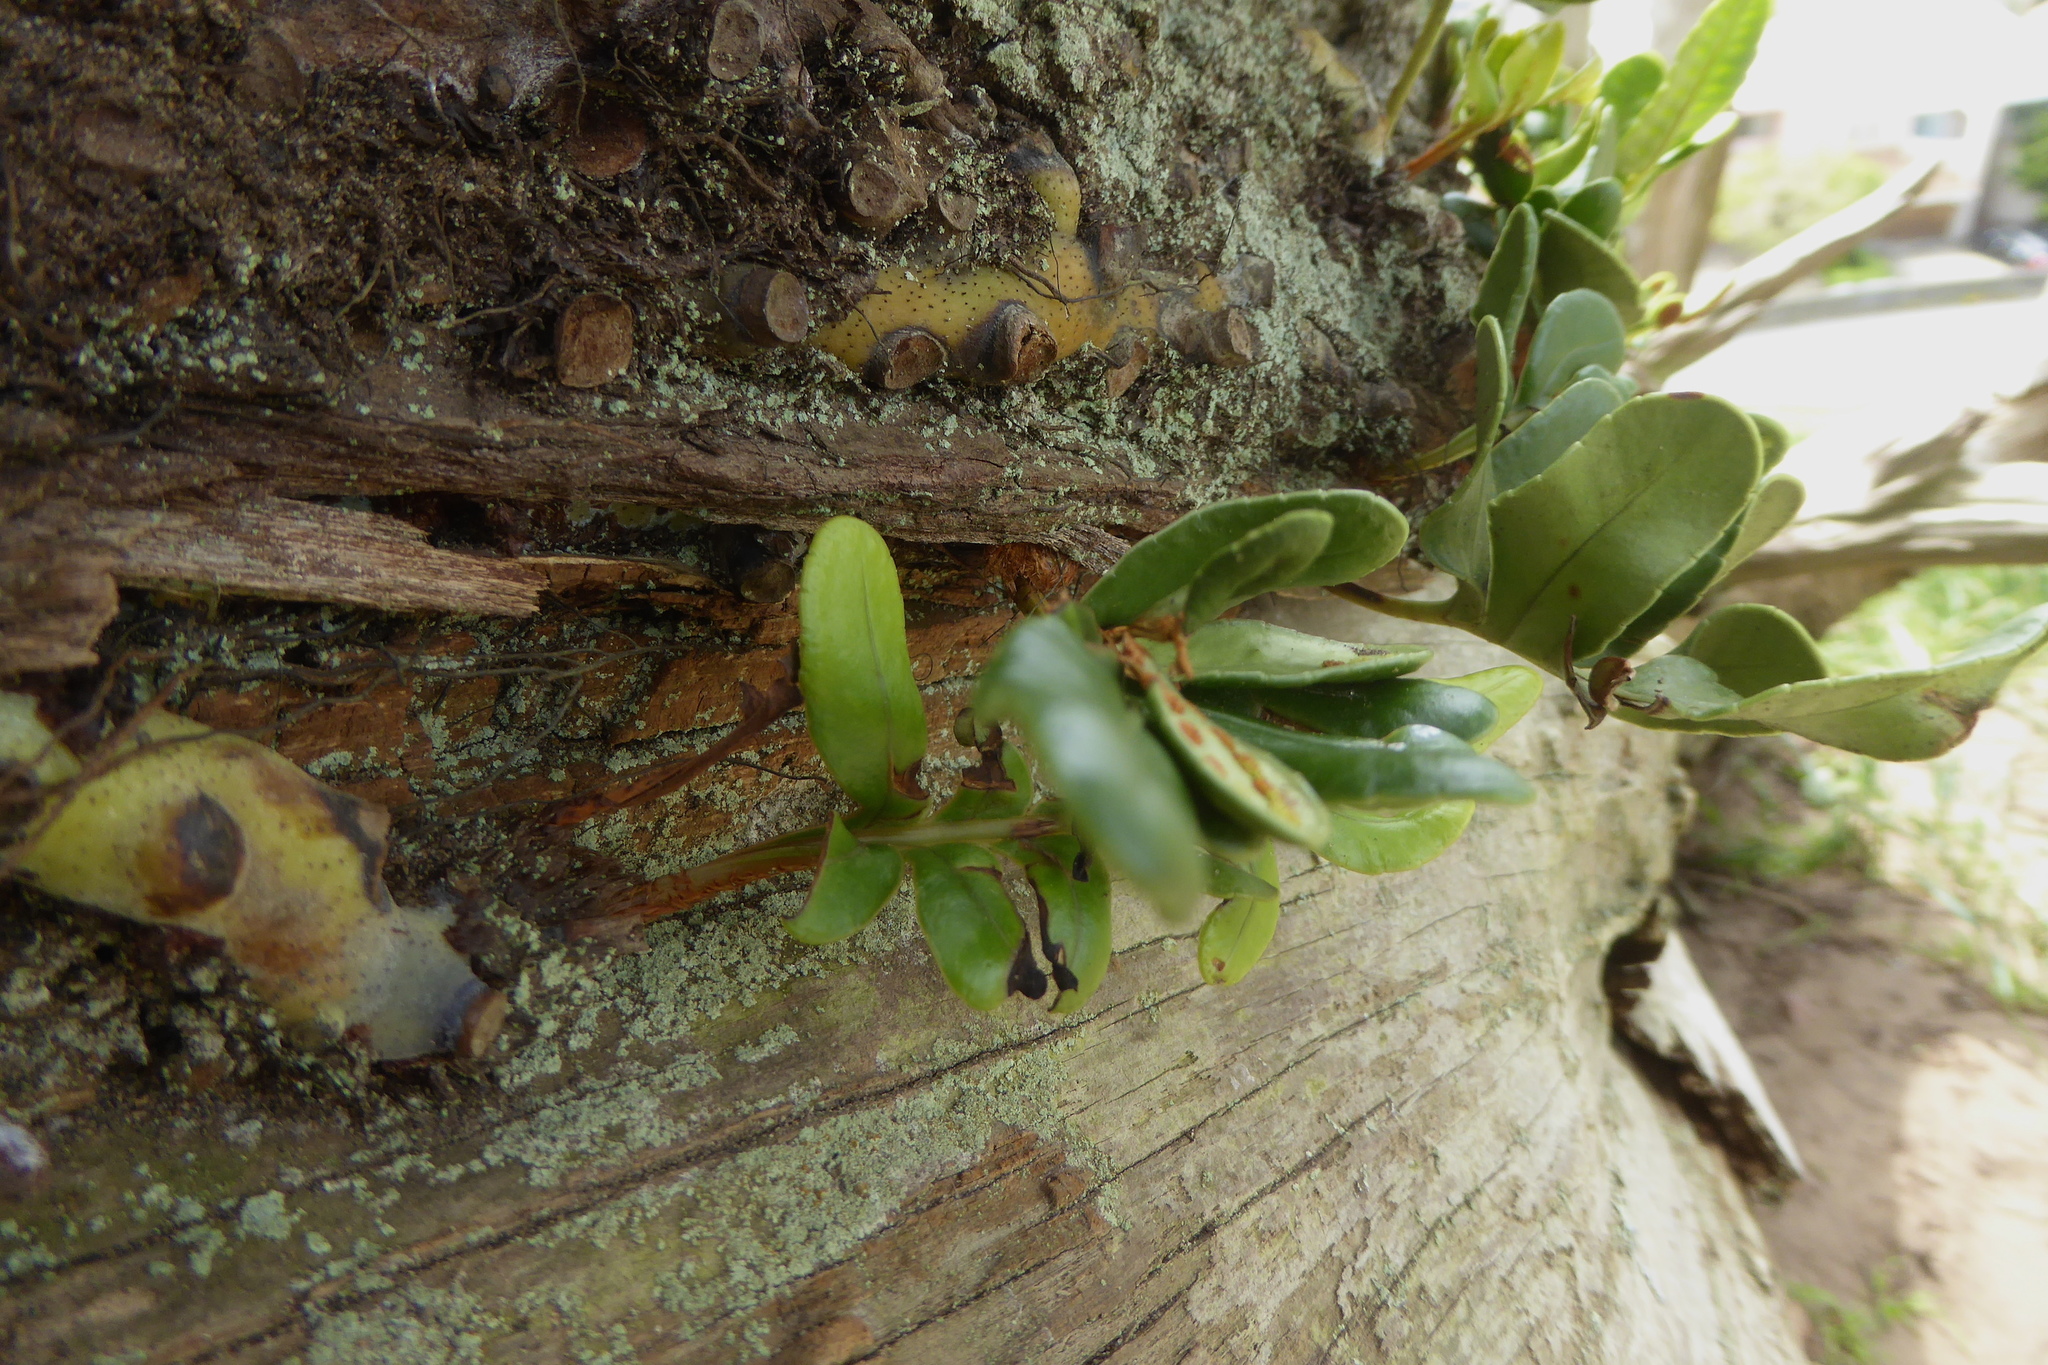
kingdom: Plantae
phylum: Tracheophyta
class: Polypodiopsida
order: Polypodiales
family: Polypodiaceae
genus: Polypodium
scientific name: Polypodium scouleri
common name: Scouler's polypody
